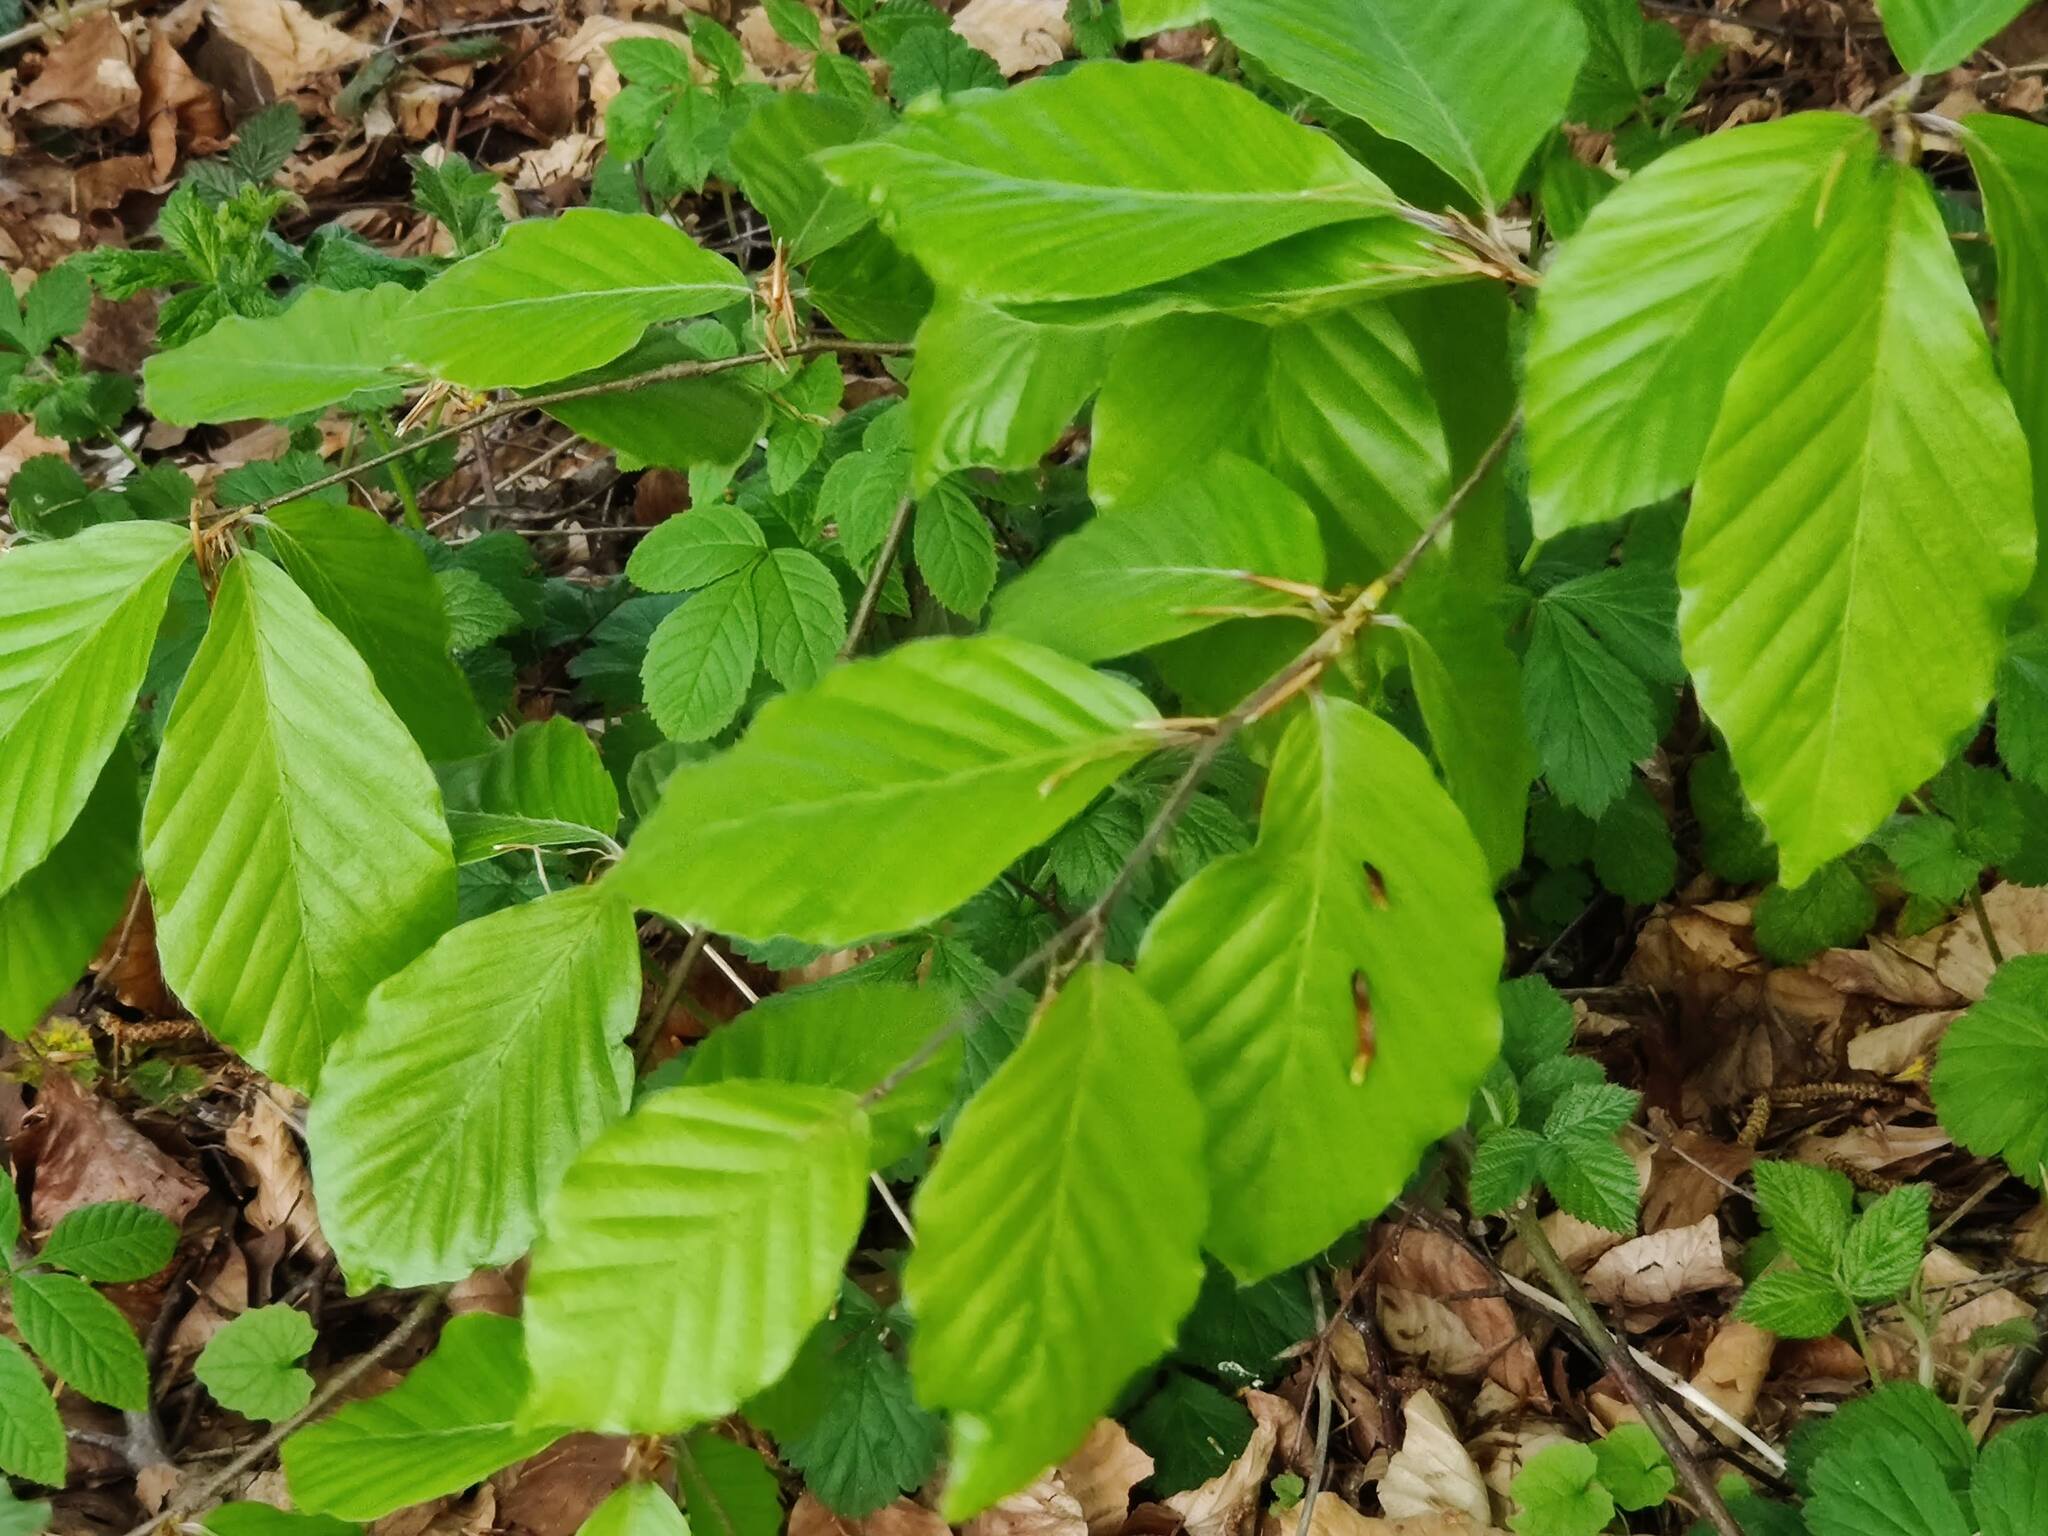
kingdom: Plantae
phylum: Tracheophyta
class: Magnoliopsida
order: Fagales
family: Fagaceae
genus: Fagus
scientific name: Fagus sylvatica
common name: Beech
